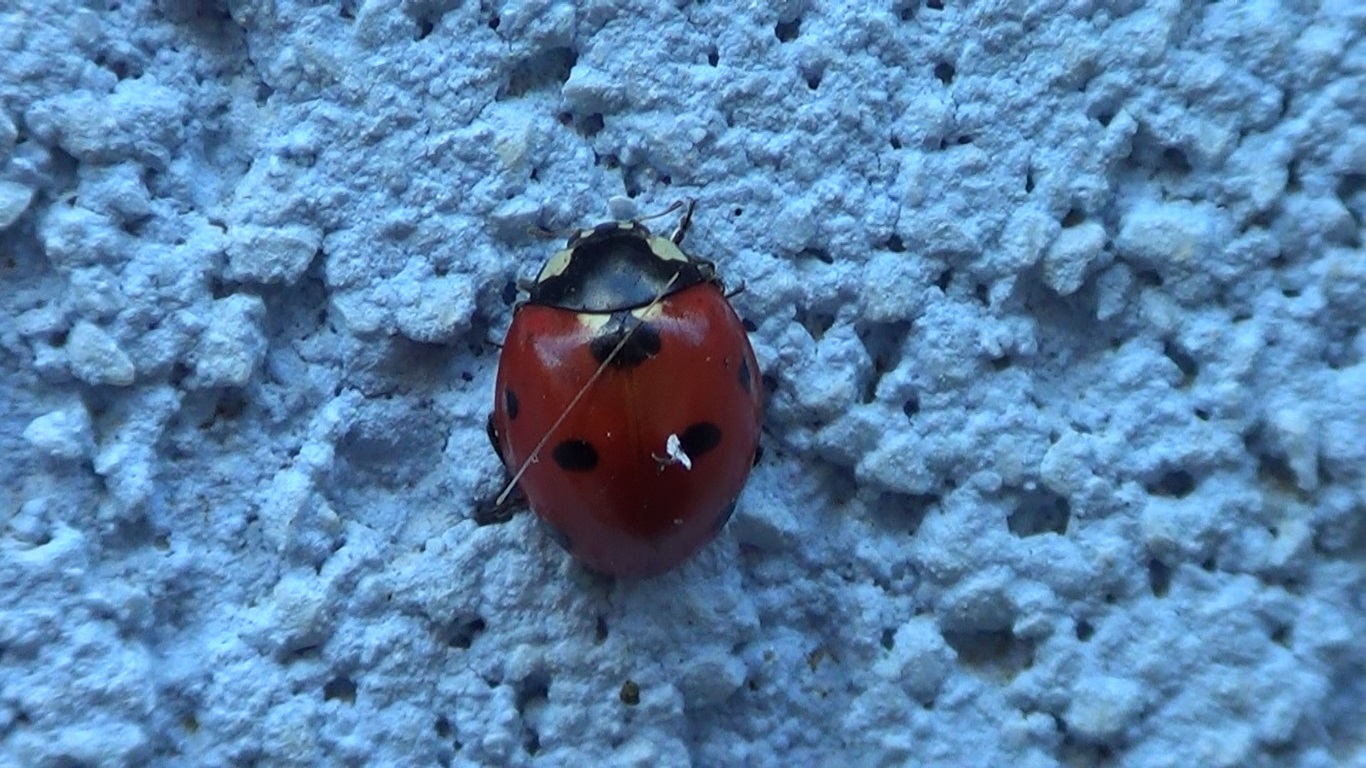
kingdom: Animalia
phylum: Arthropoda
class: Insecta
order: Coleoptera
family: Coccinellidae
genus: Coccinella
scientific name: Coccinella septempunctata
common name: Sevenspotted lady beetle
